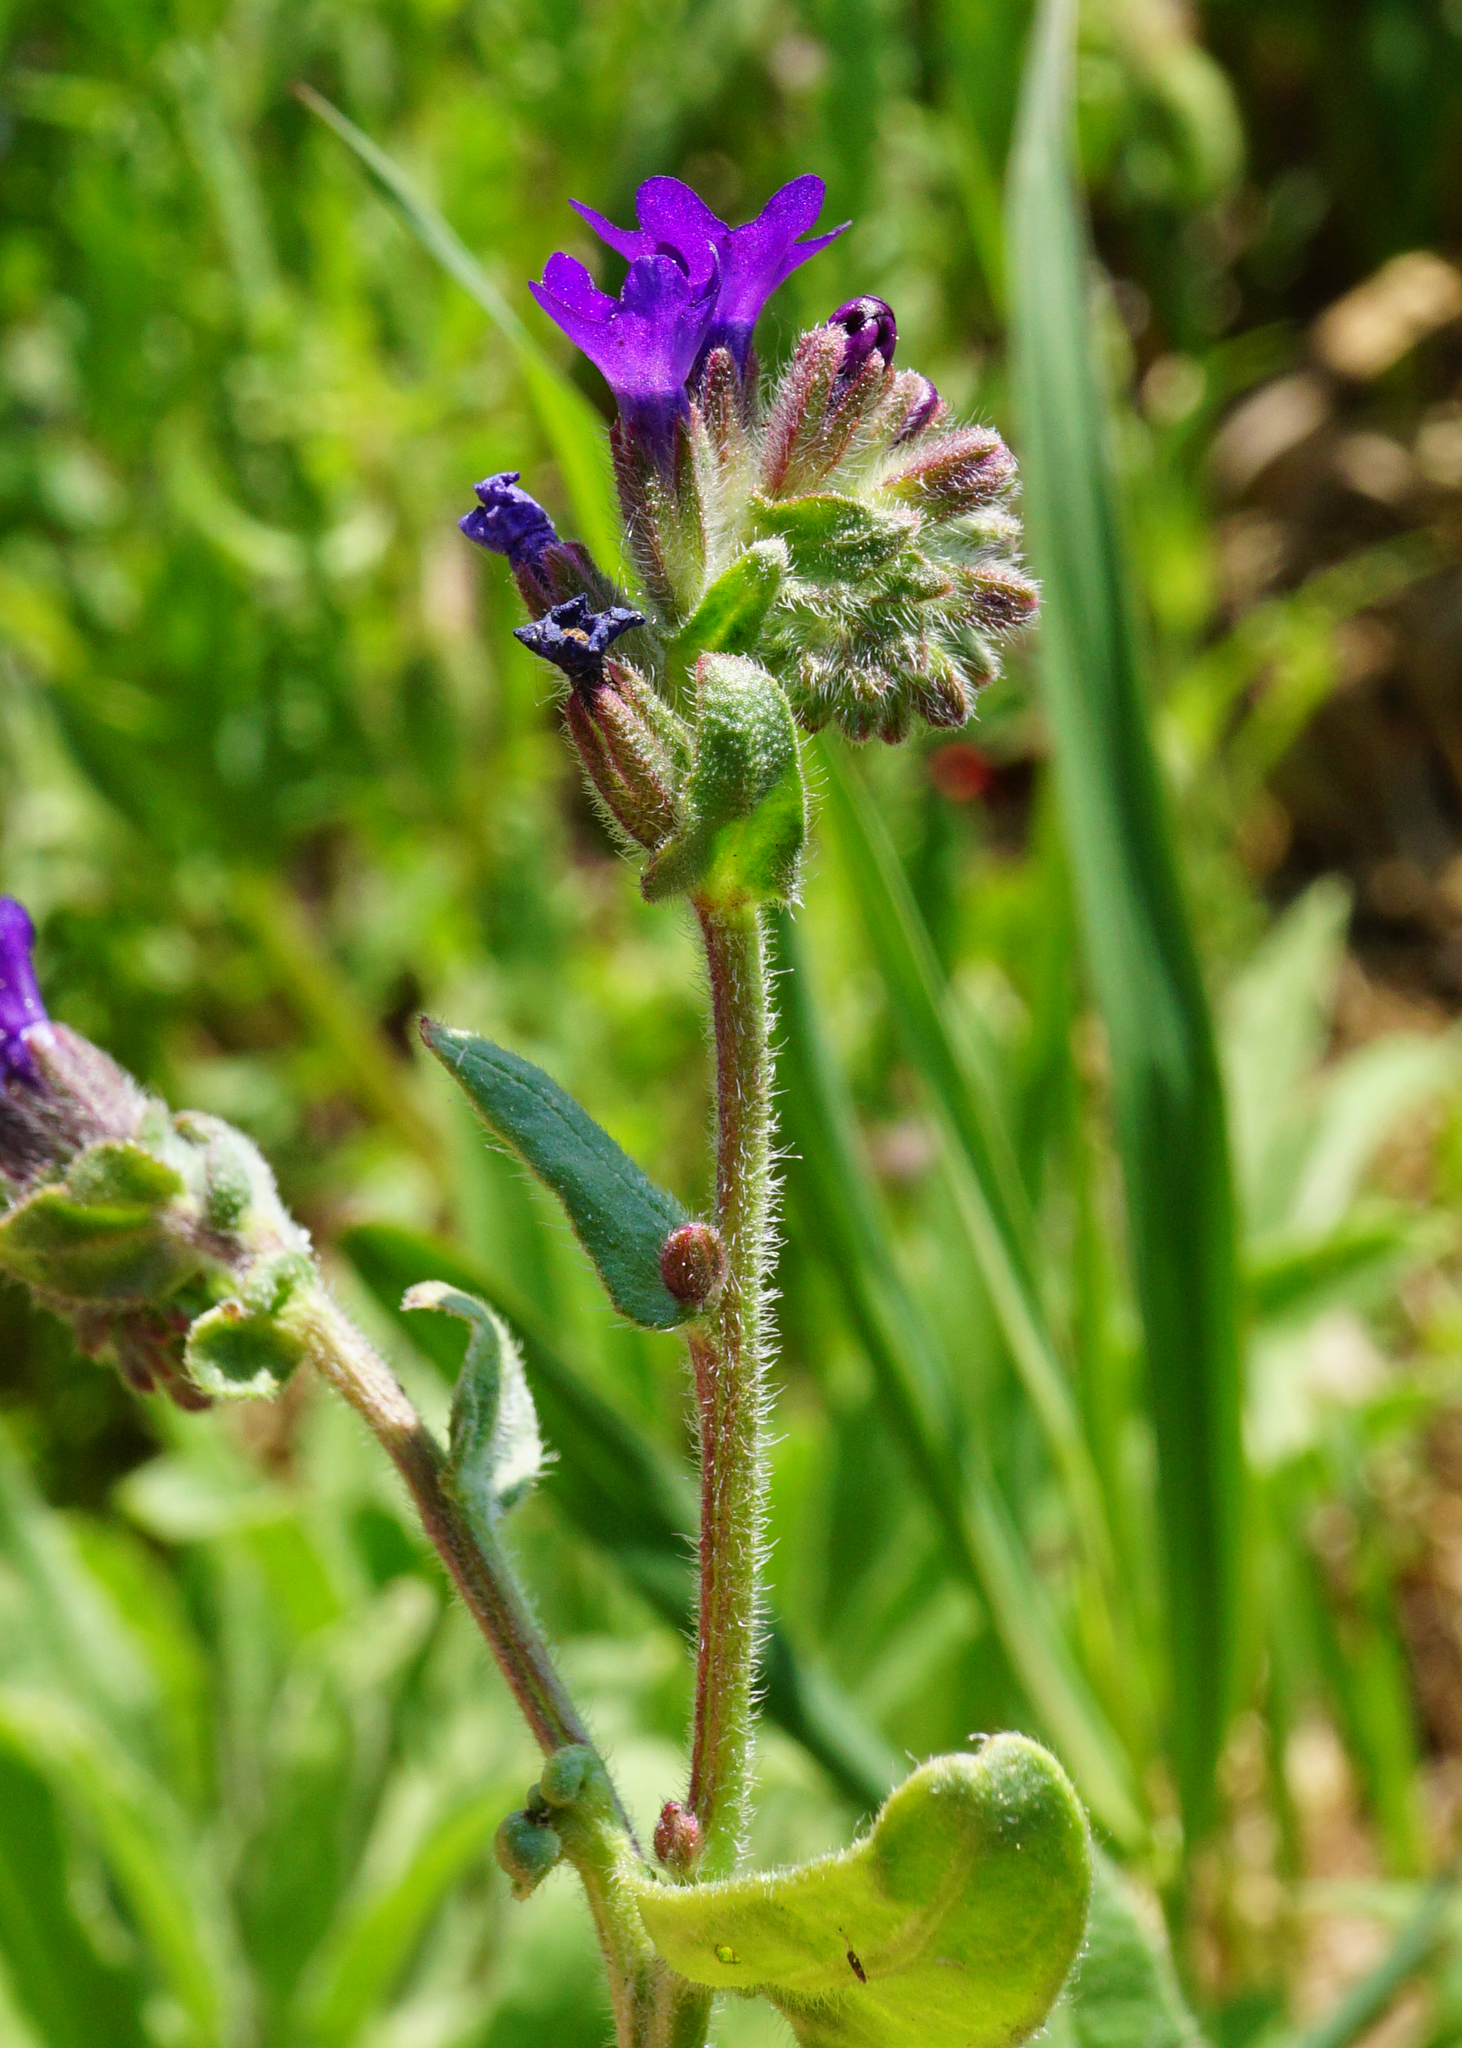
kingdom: Plantae
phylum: Tracheophyta
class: Magnoliopsida
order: Boraginales
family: Boraginaceae
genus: Anchusa
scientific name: Anchusa officinalis
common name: Alkanet
